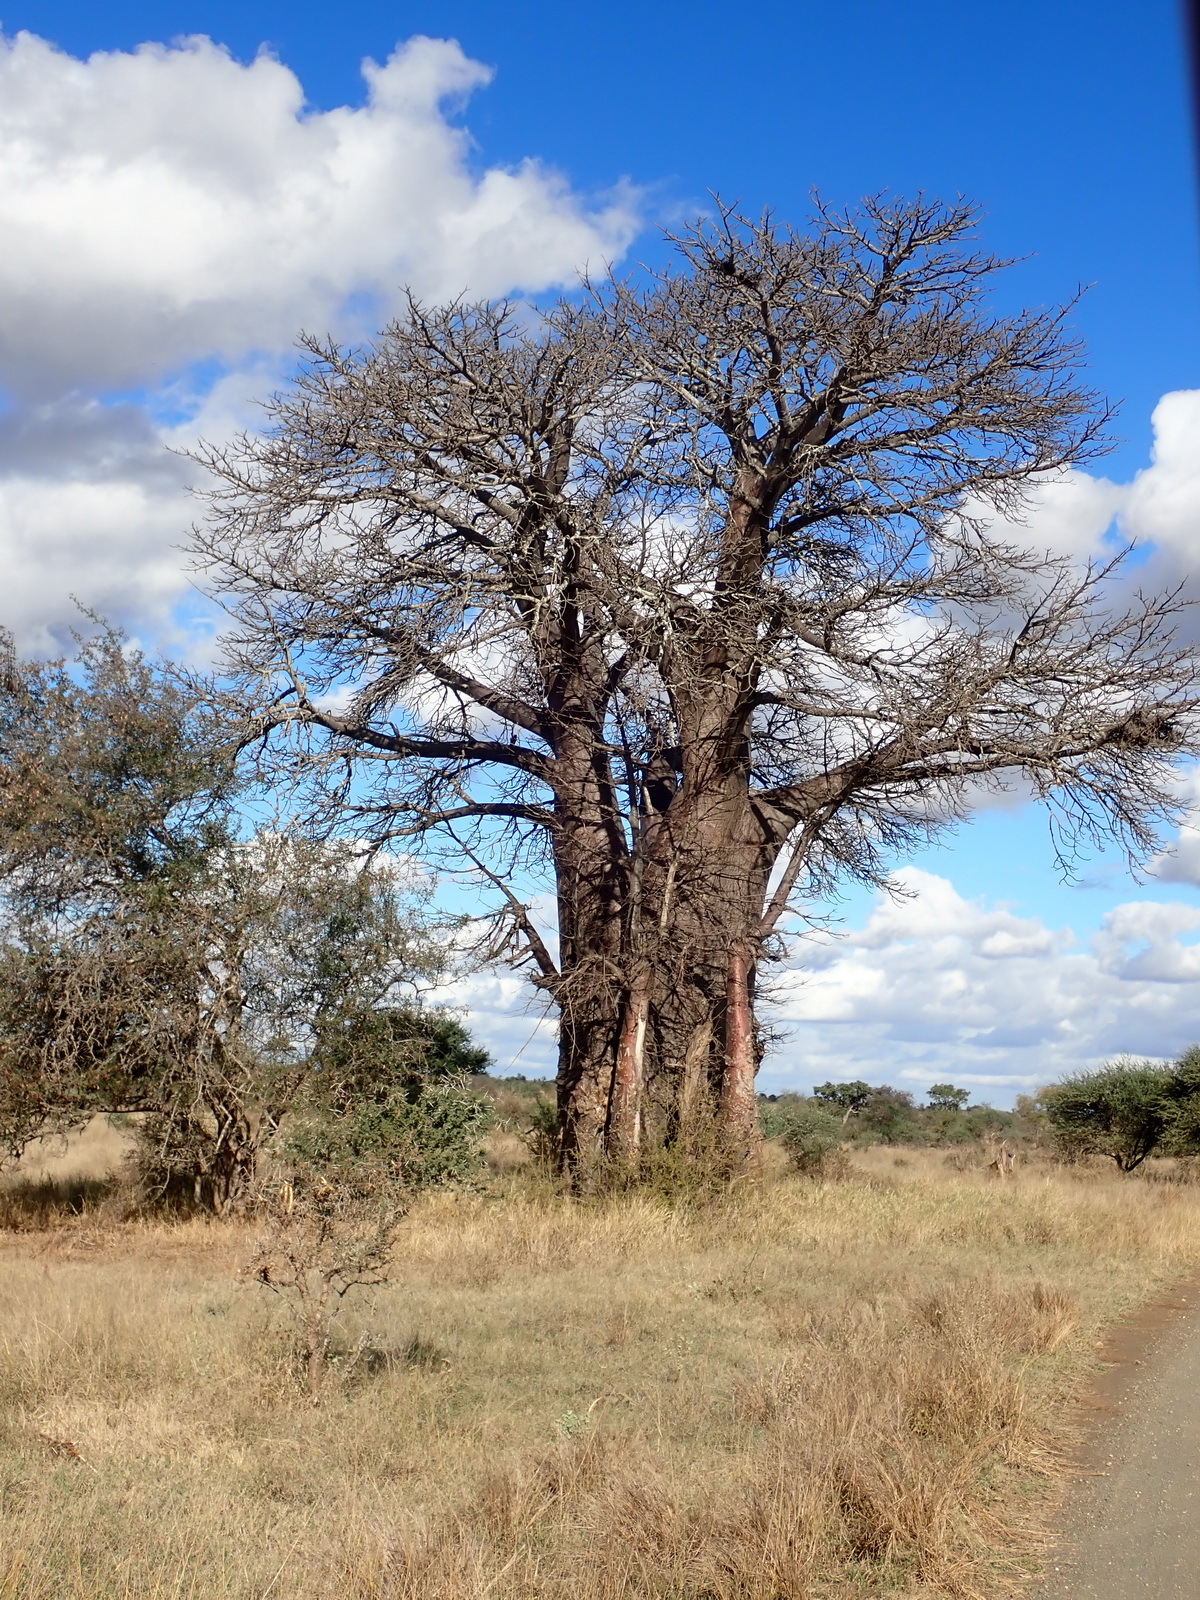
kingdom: Plantae
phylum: Tracheophyta
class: Magnoliopsida
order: Malvales
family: Malvaceae
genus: Adansonia
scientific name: Adansonia digitata
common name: Dead-rat-tree
